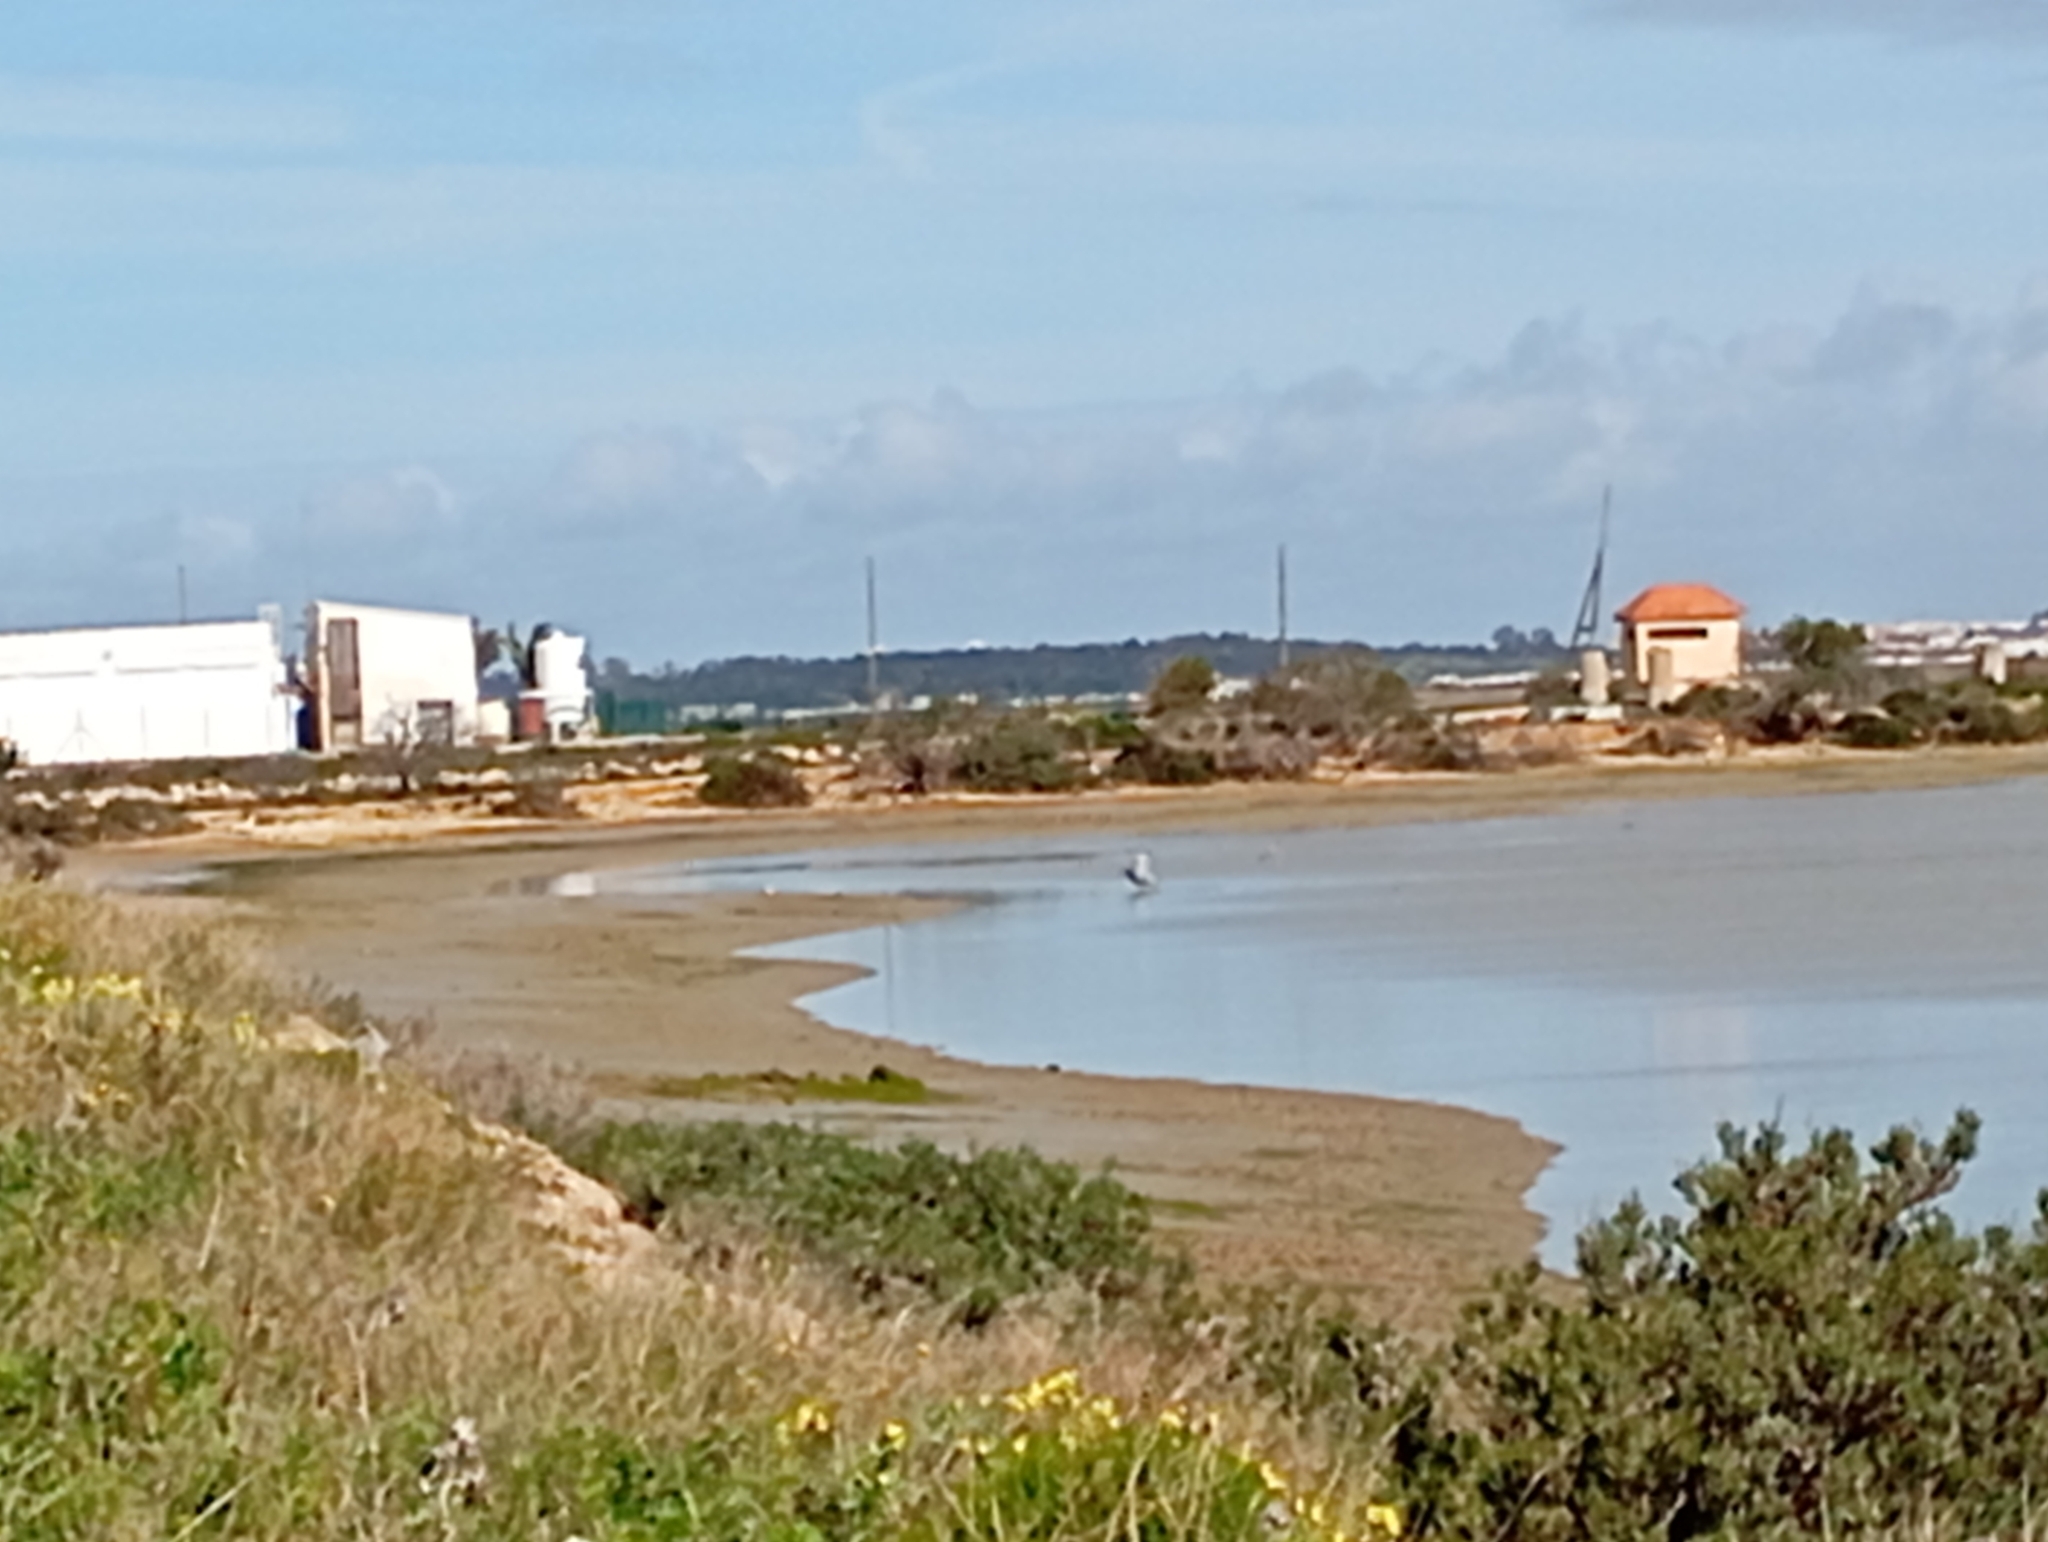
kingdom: Animalia
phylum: Chordata
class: Aves
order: Pelecaniformes
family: Ardeidae
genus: Ardea
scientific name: Ardea cinerea
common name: Grey heron
